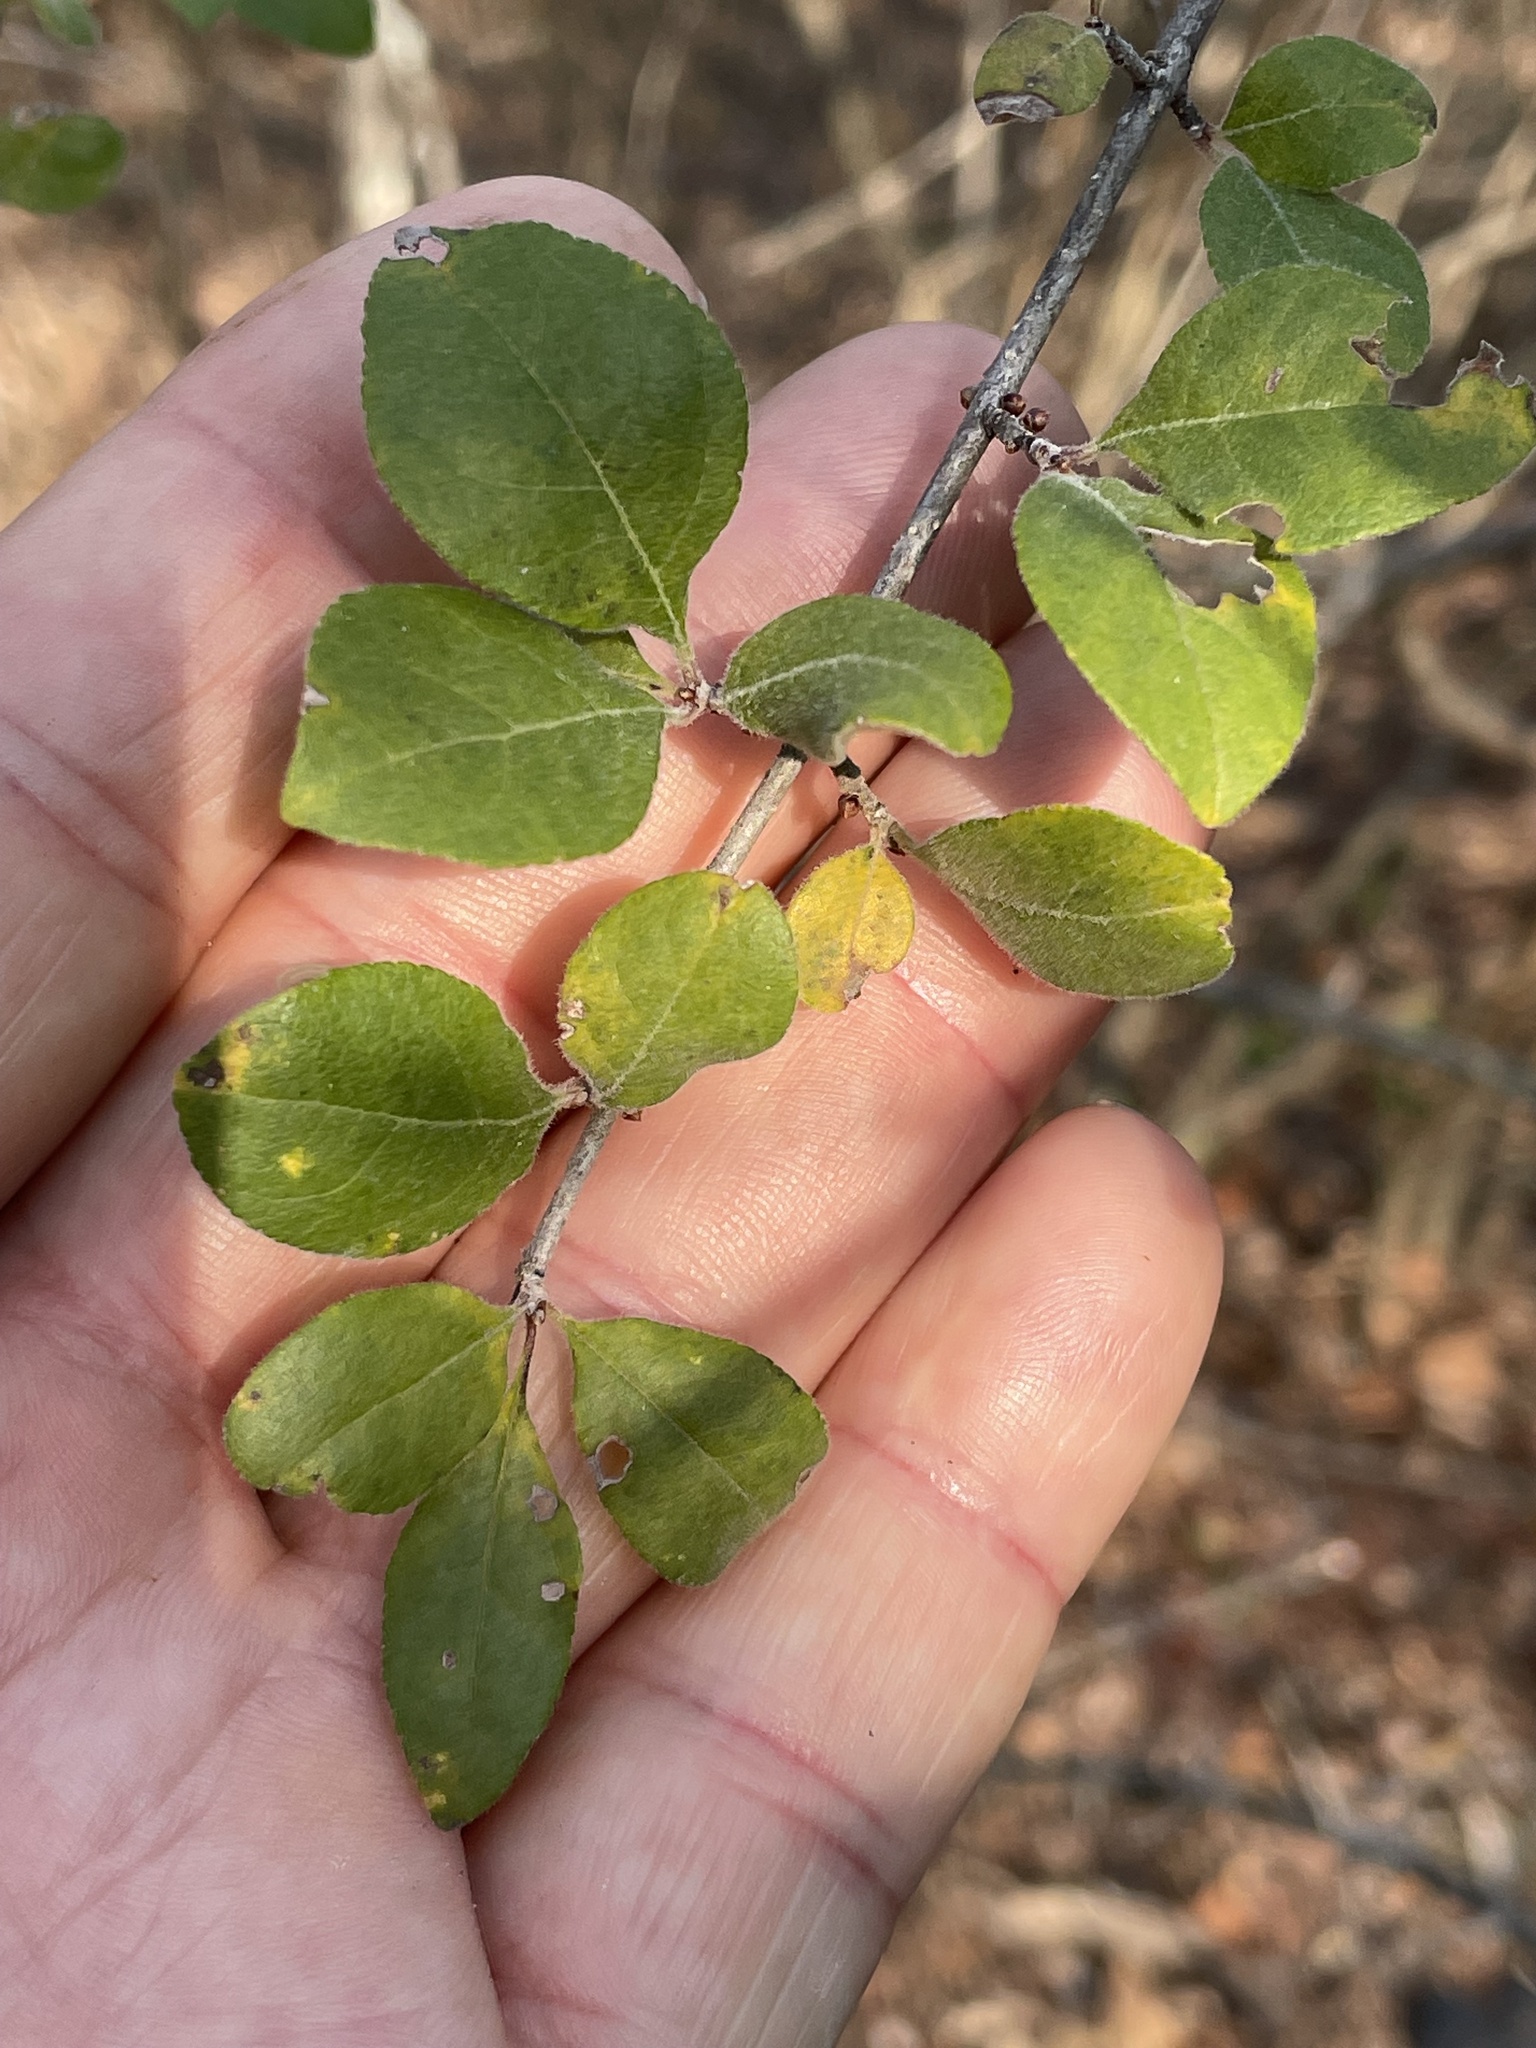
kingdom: Plantae
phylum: Tracheophyta
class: Magnoliopsida
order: Lamiales
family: Oleaceae
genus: Forestiera
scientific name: Forestiera pubescens
